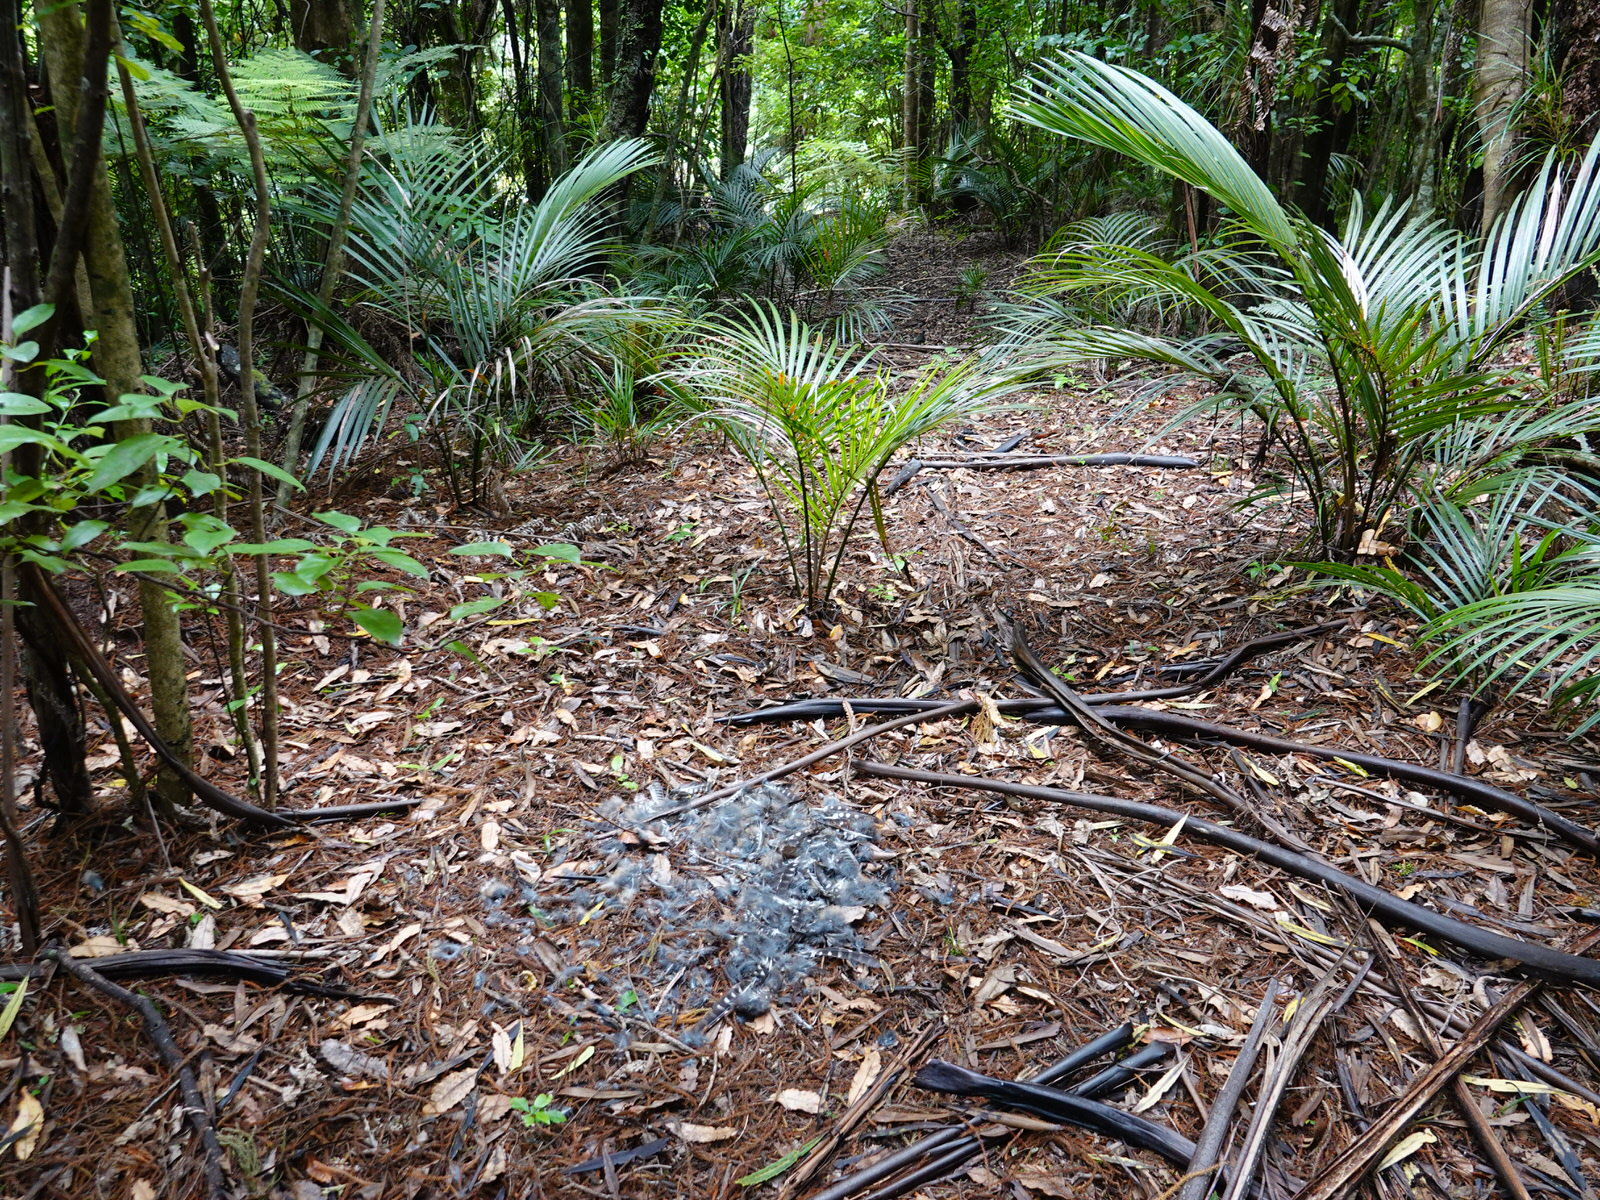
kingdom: Animalia
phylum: Chordata
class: Aves
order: Strigiformes
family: Strigidae
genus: Ninox
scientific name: Ninox novaeseelandiae
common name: Morepork
